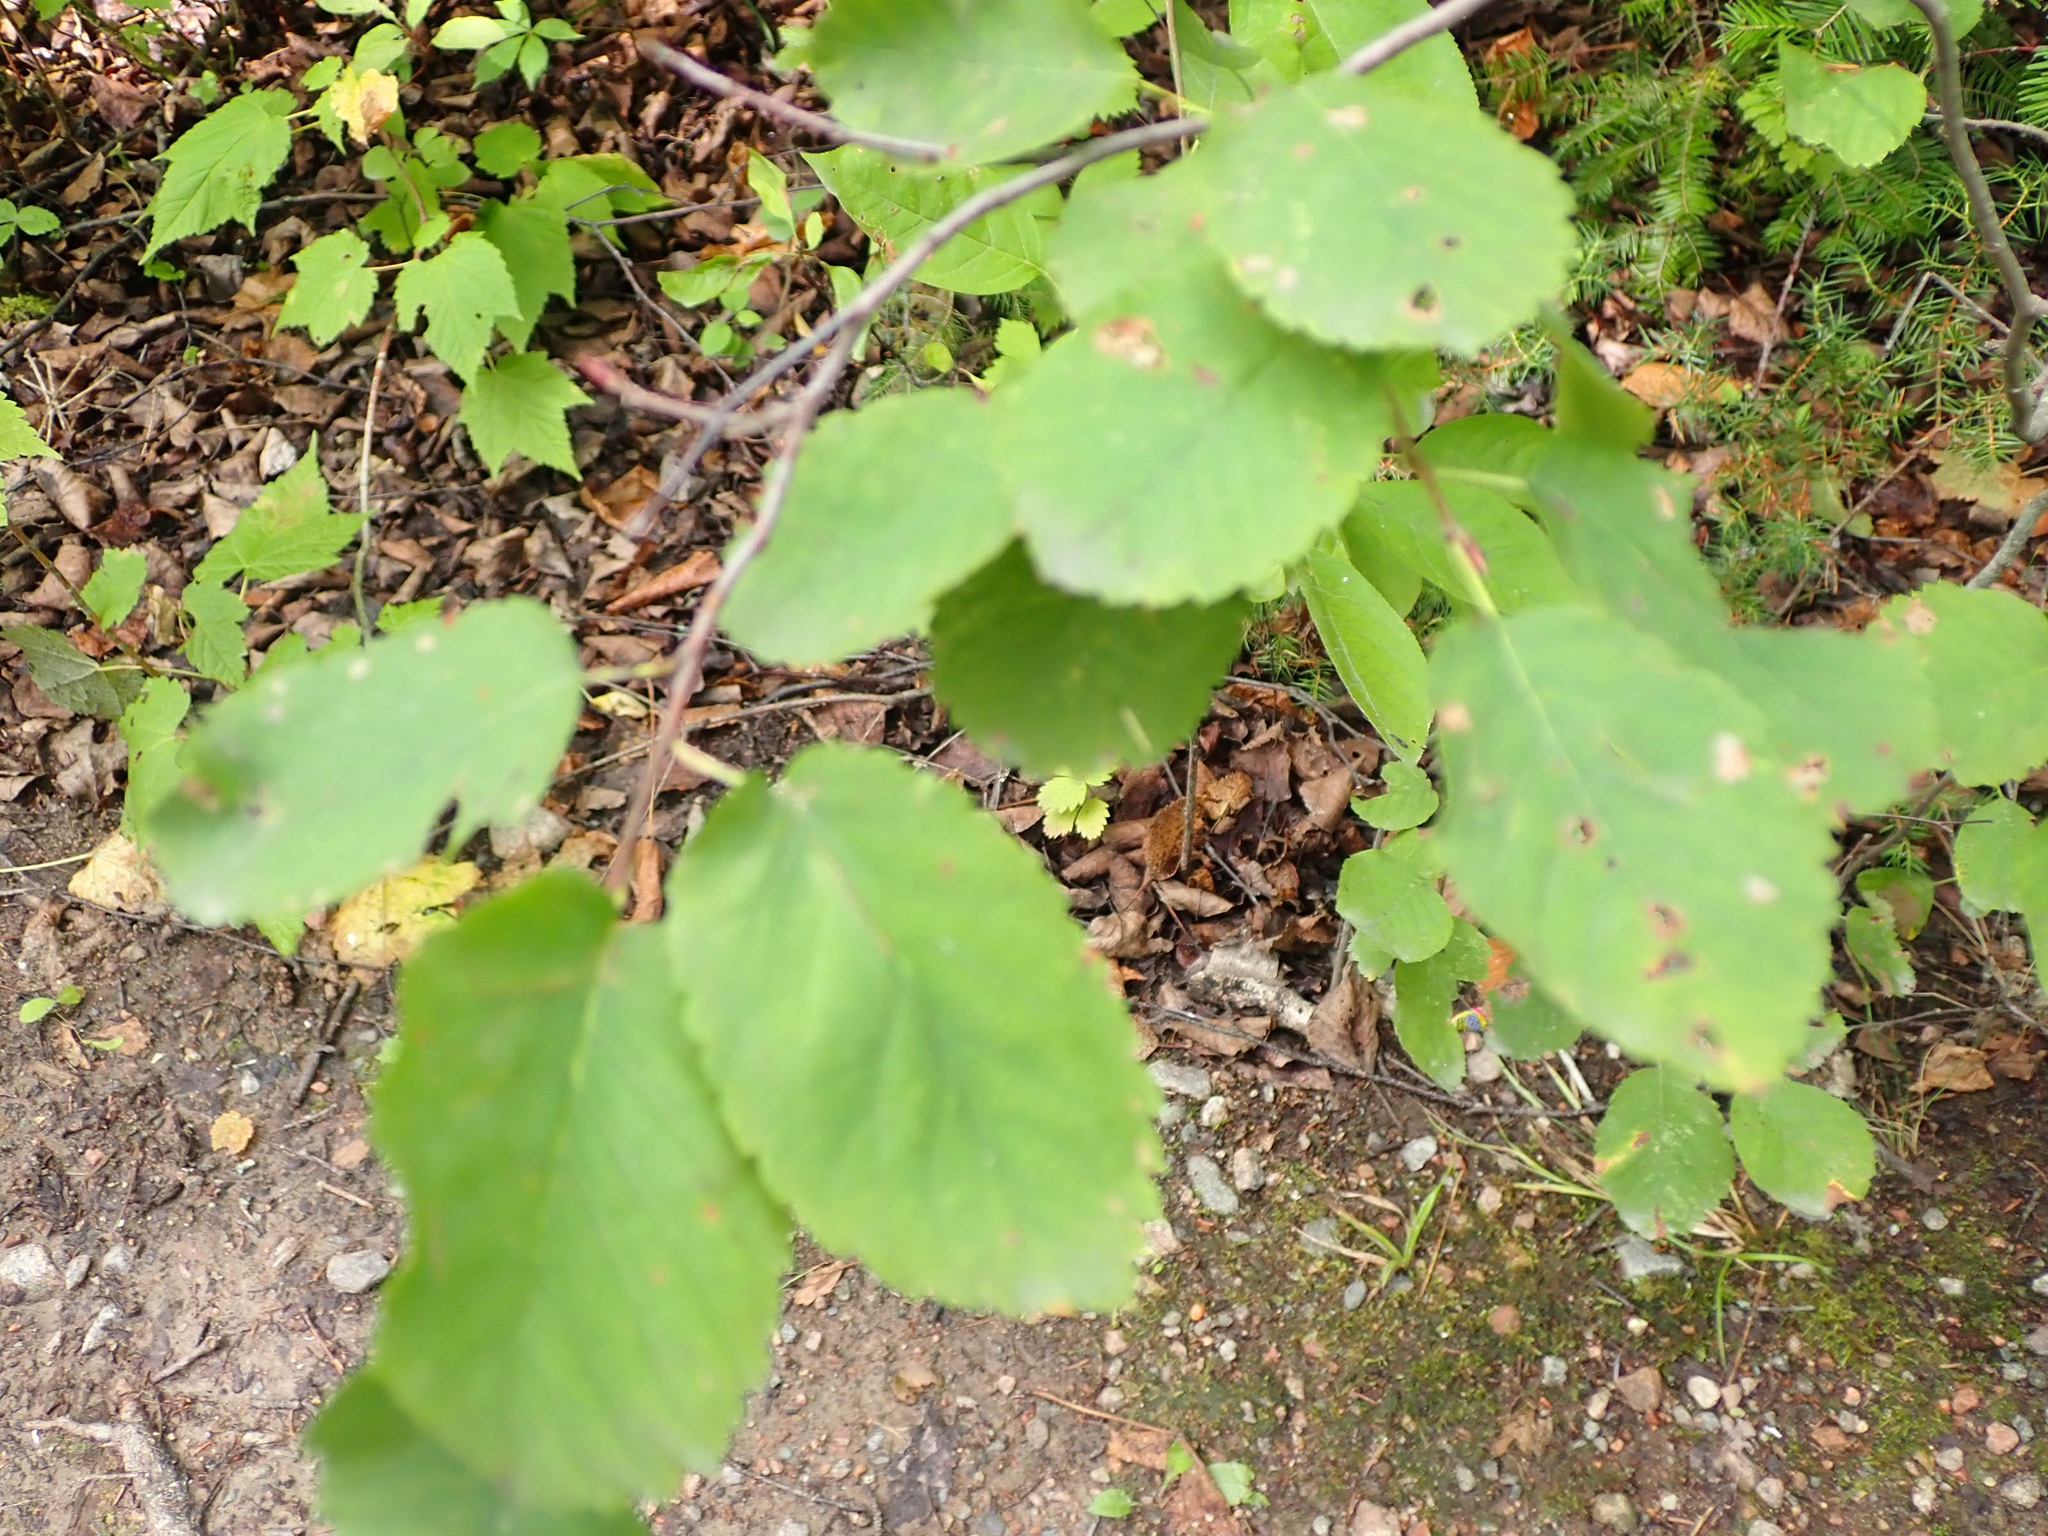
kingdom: Plantae
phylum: Tracheophyta
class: Magnoliopsida
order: Rosales
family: Rosaceae
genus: Amelanchier
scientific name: Amelanchier alnifolia
